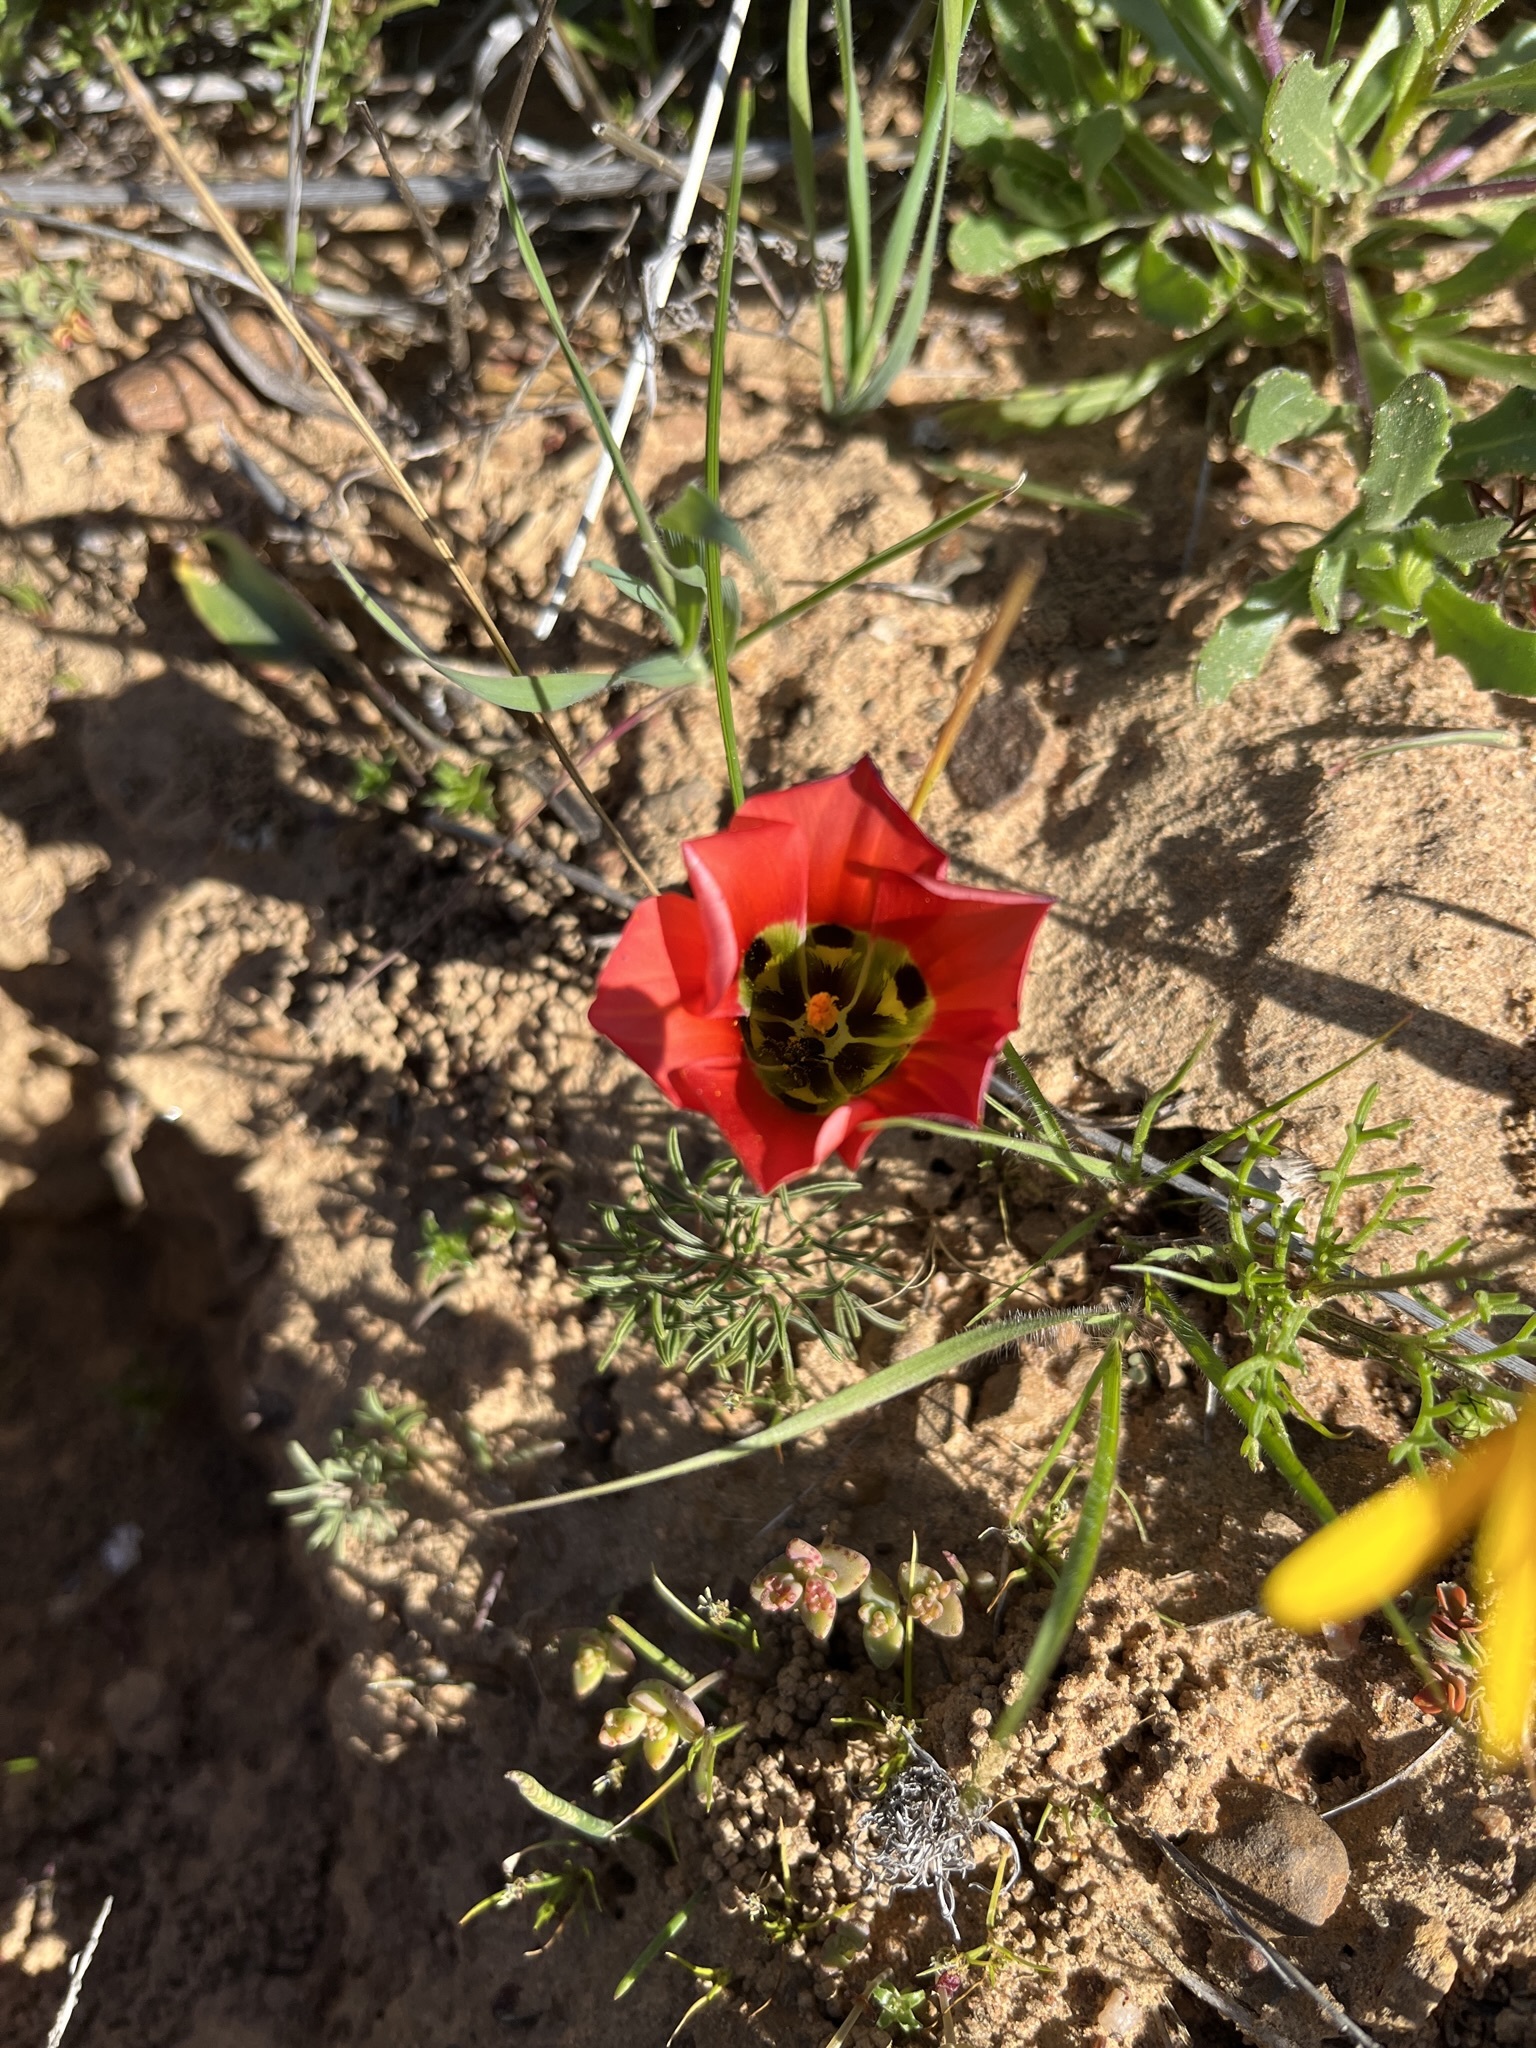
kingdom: Plantae
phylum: Tracheophyta
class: Liliopsida
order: Asparagales
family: Iridaceae
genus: Romulea
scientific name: Romulea sabulosa
